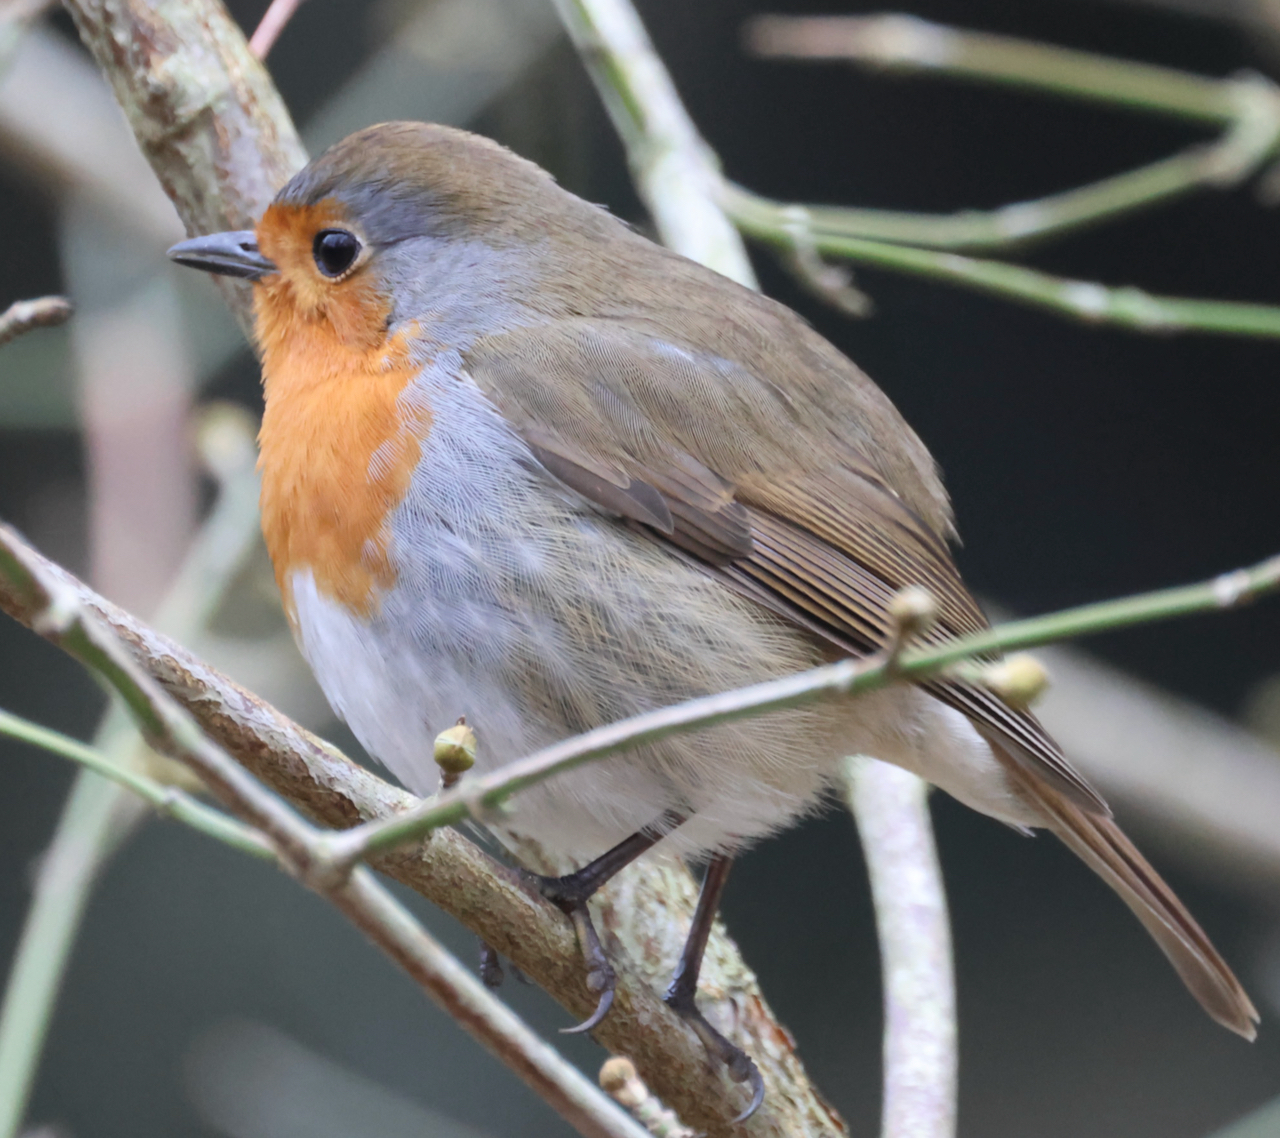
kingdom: Animalia
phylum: Chordata
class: Aves
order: Passeriformes
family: Muscicapidae
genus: Erithacus
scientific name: Erithacus rubecula
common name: European robin
